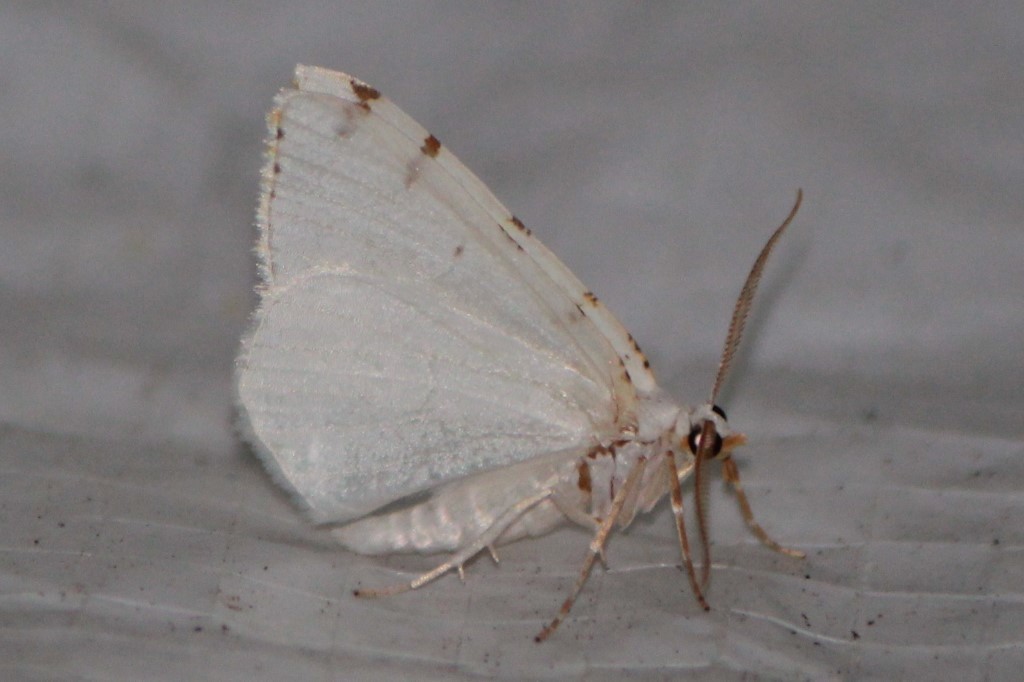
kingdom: Animalia
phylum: Arthropoda
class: Insecta
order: Lepidoptera
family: Geometridae
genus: Macaria
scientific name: Macaria pustularia
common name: Lesser maple spanworm moth
